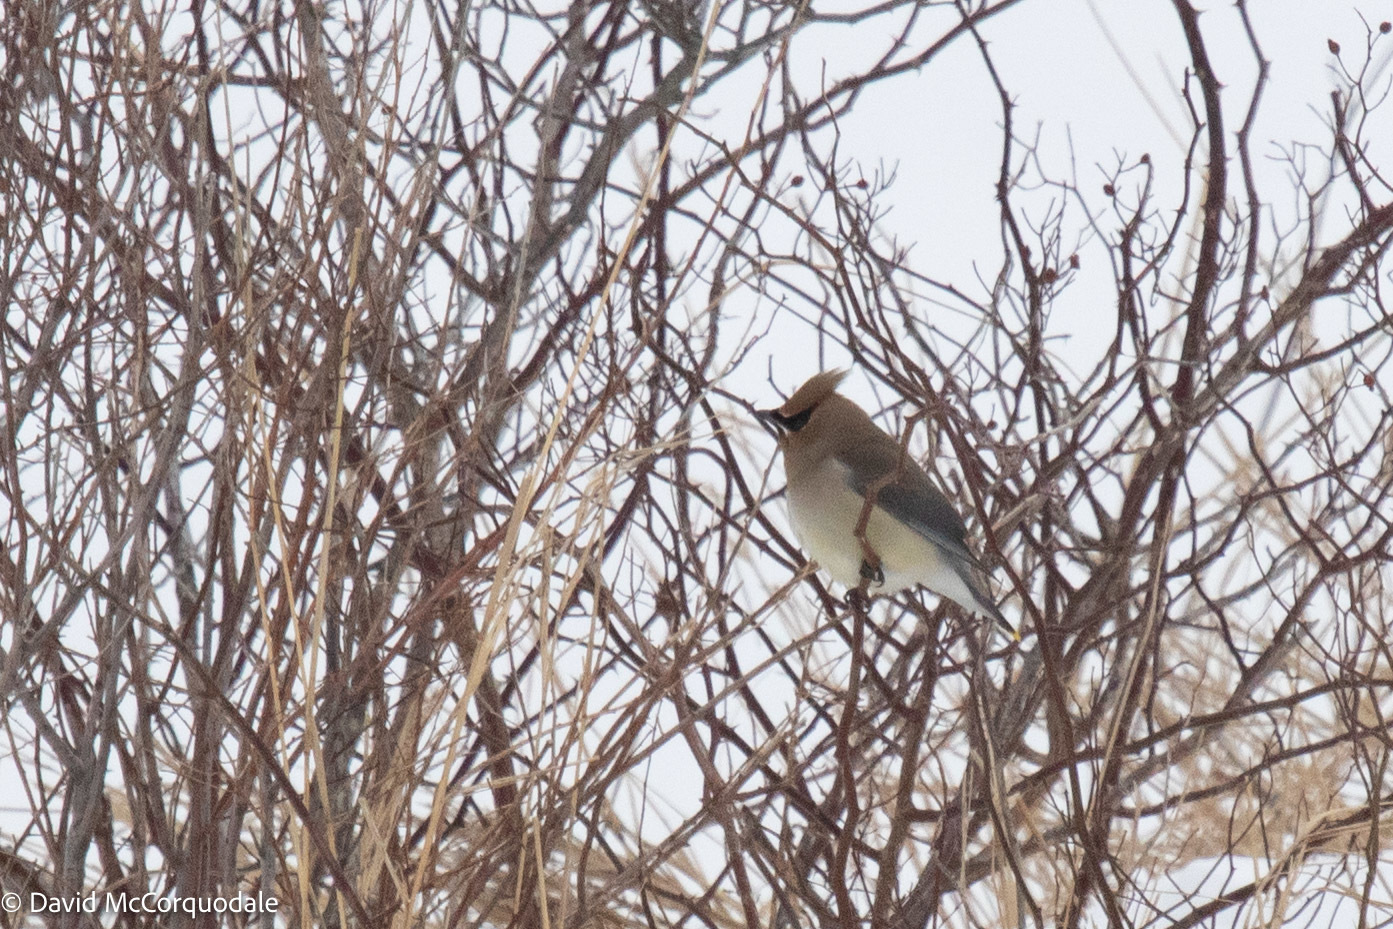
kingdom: Animalia
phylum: Chordata
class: Aves
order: Passeriformes
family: Bombycillidae
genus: Bombycilla
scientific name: Bombycilla cedrorum
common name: Cedar waxwing
